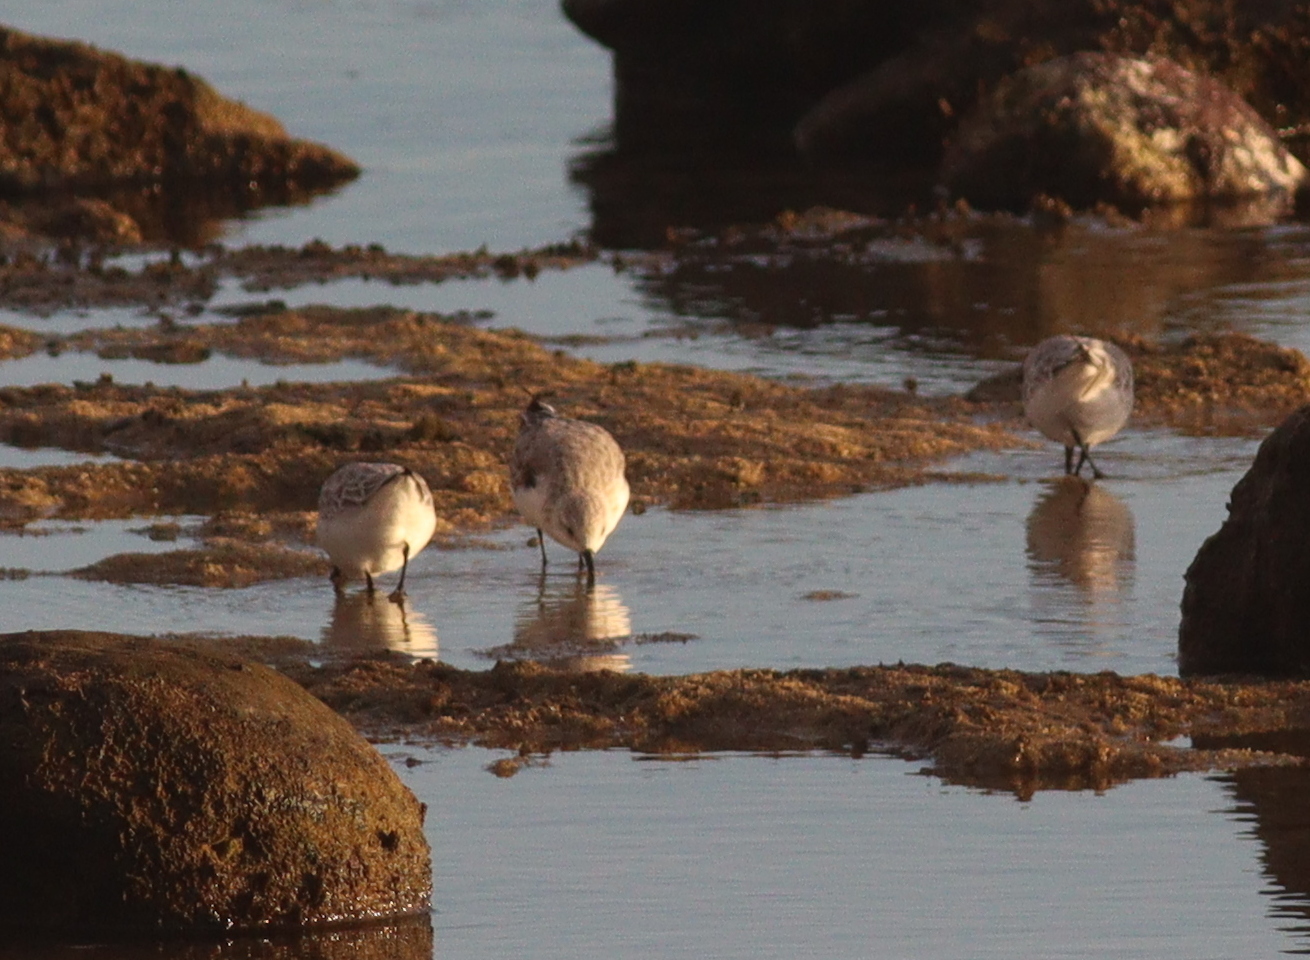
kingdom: Animalia
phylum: Chordata
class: Aves
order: Charadriiformes
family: Scolopacidae
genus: Calidris
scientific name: Calidris alba
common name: Sanderling
